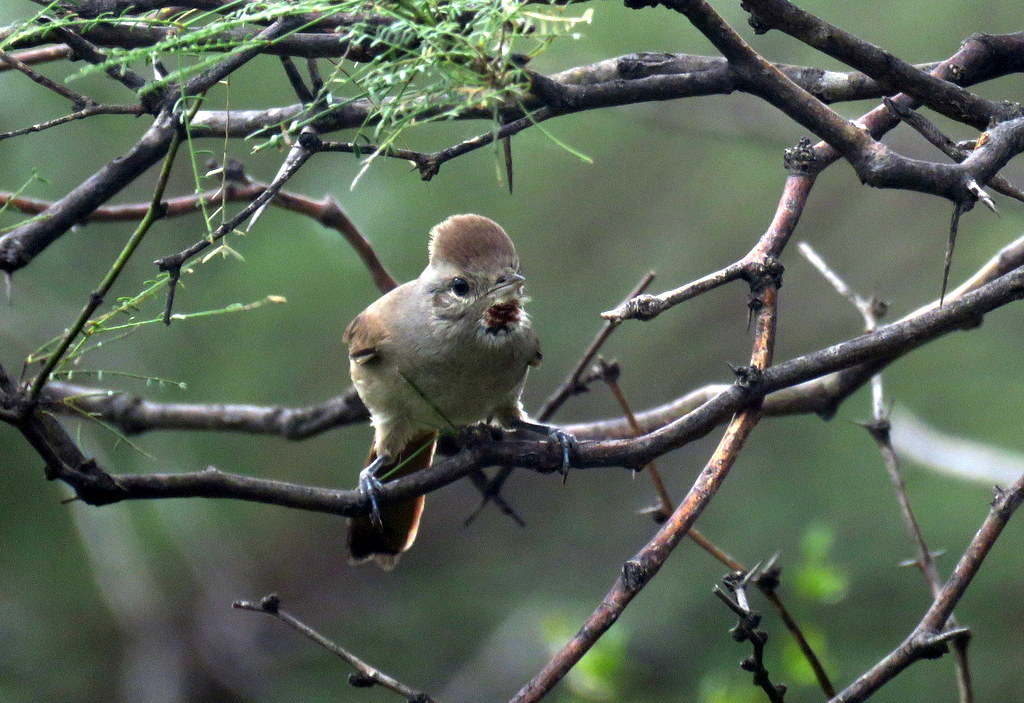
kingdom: Animalia
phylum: Chordata
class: Aves
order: Passeriformes
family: Furnariidae
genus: Asthenes
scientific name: Asthenes baeri
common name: Short-billed canastero
